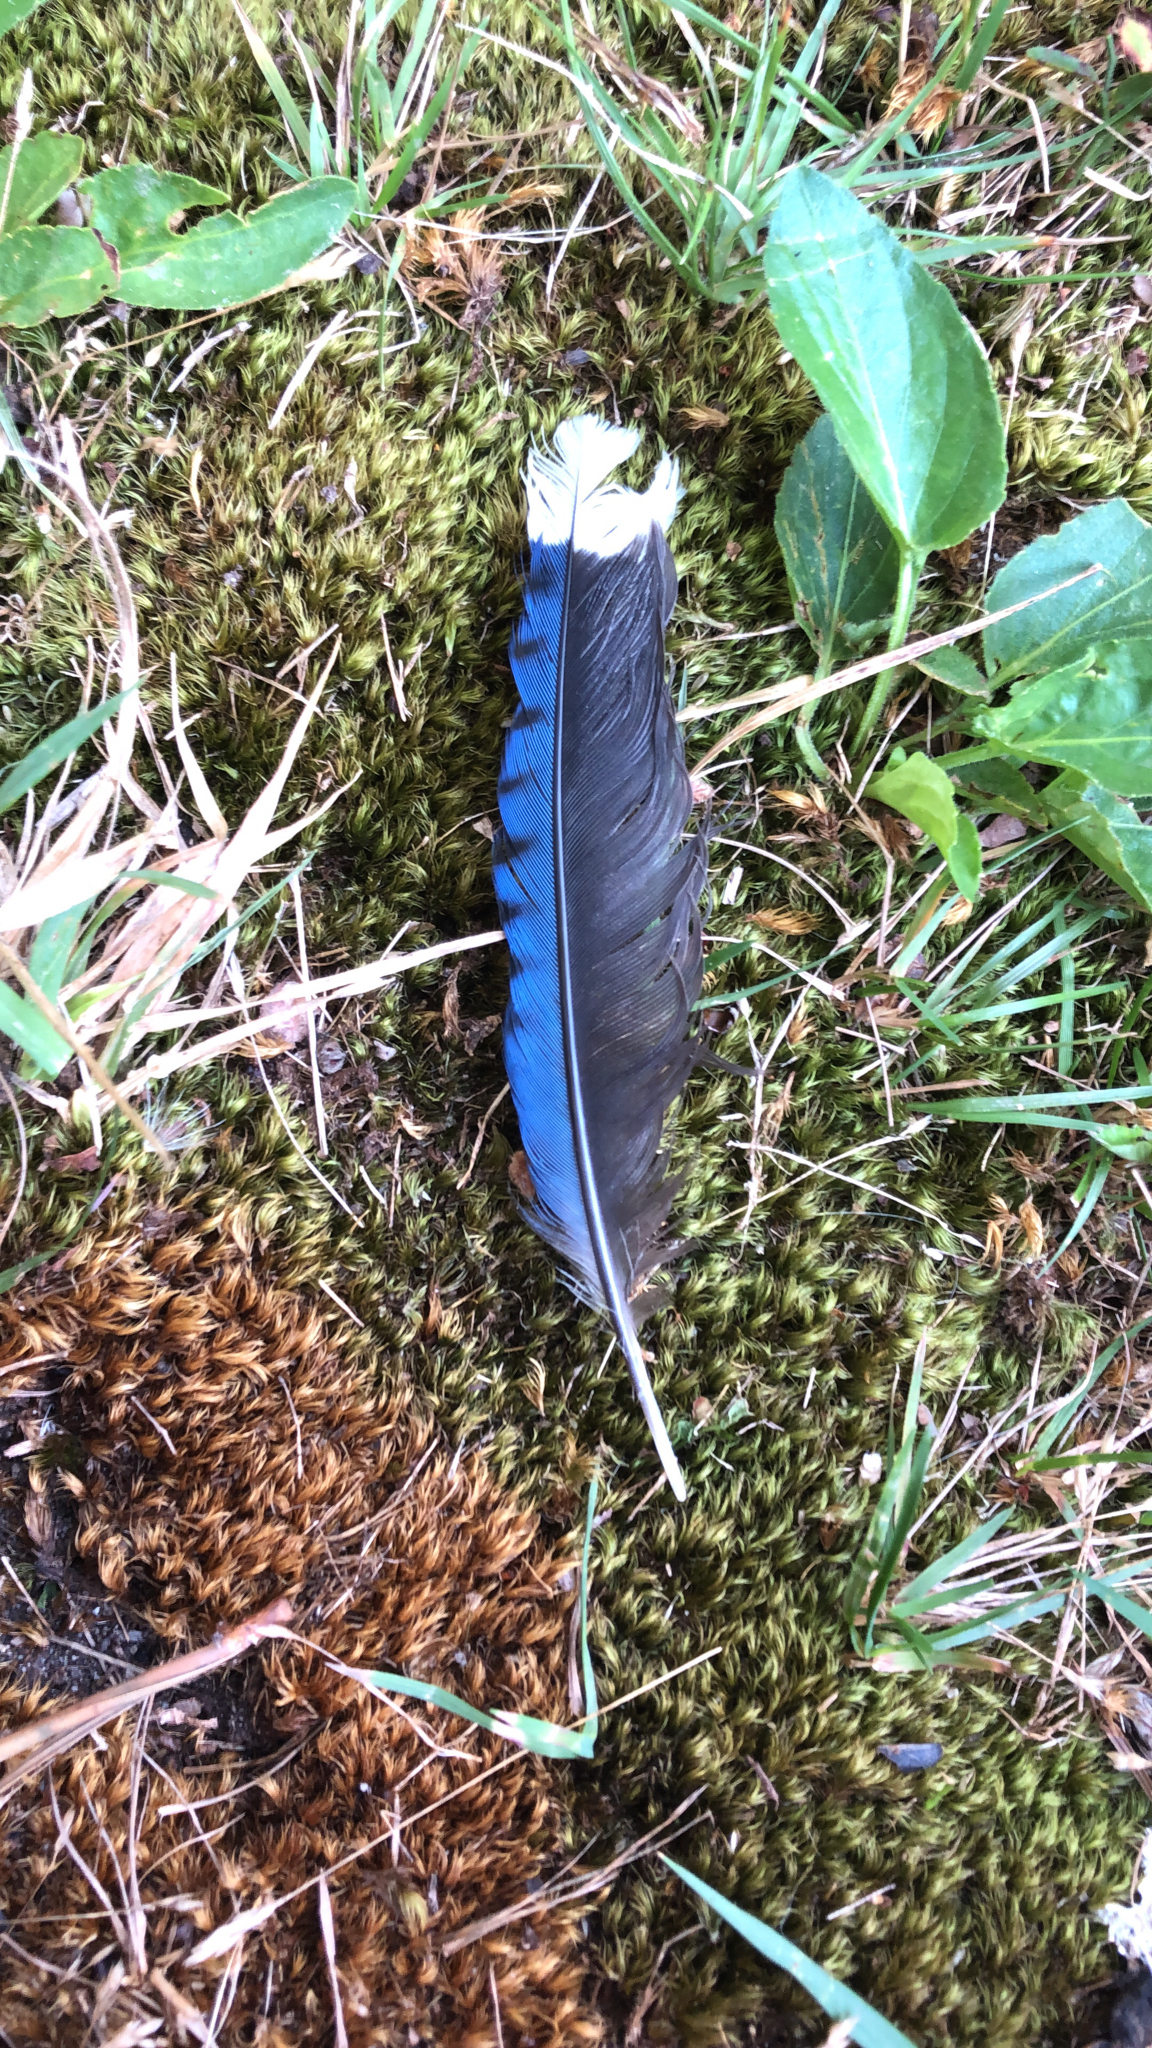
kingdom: Animalia
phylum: Chordata
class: Aves
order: Passeriformes
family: Corvidae
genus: Cyanocitta
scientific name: Cyanocitta cristata
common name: Blue jay
